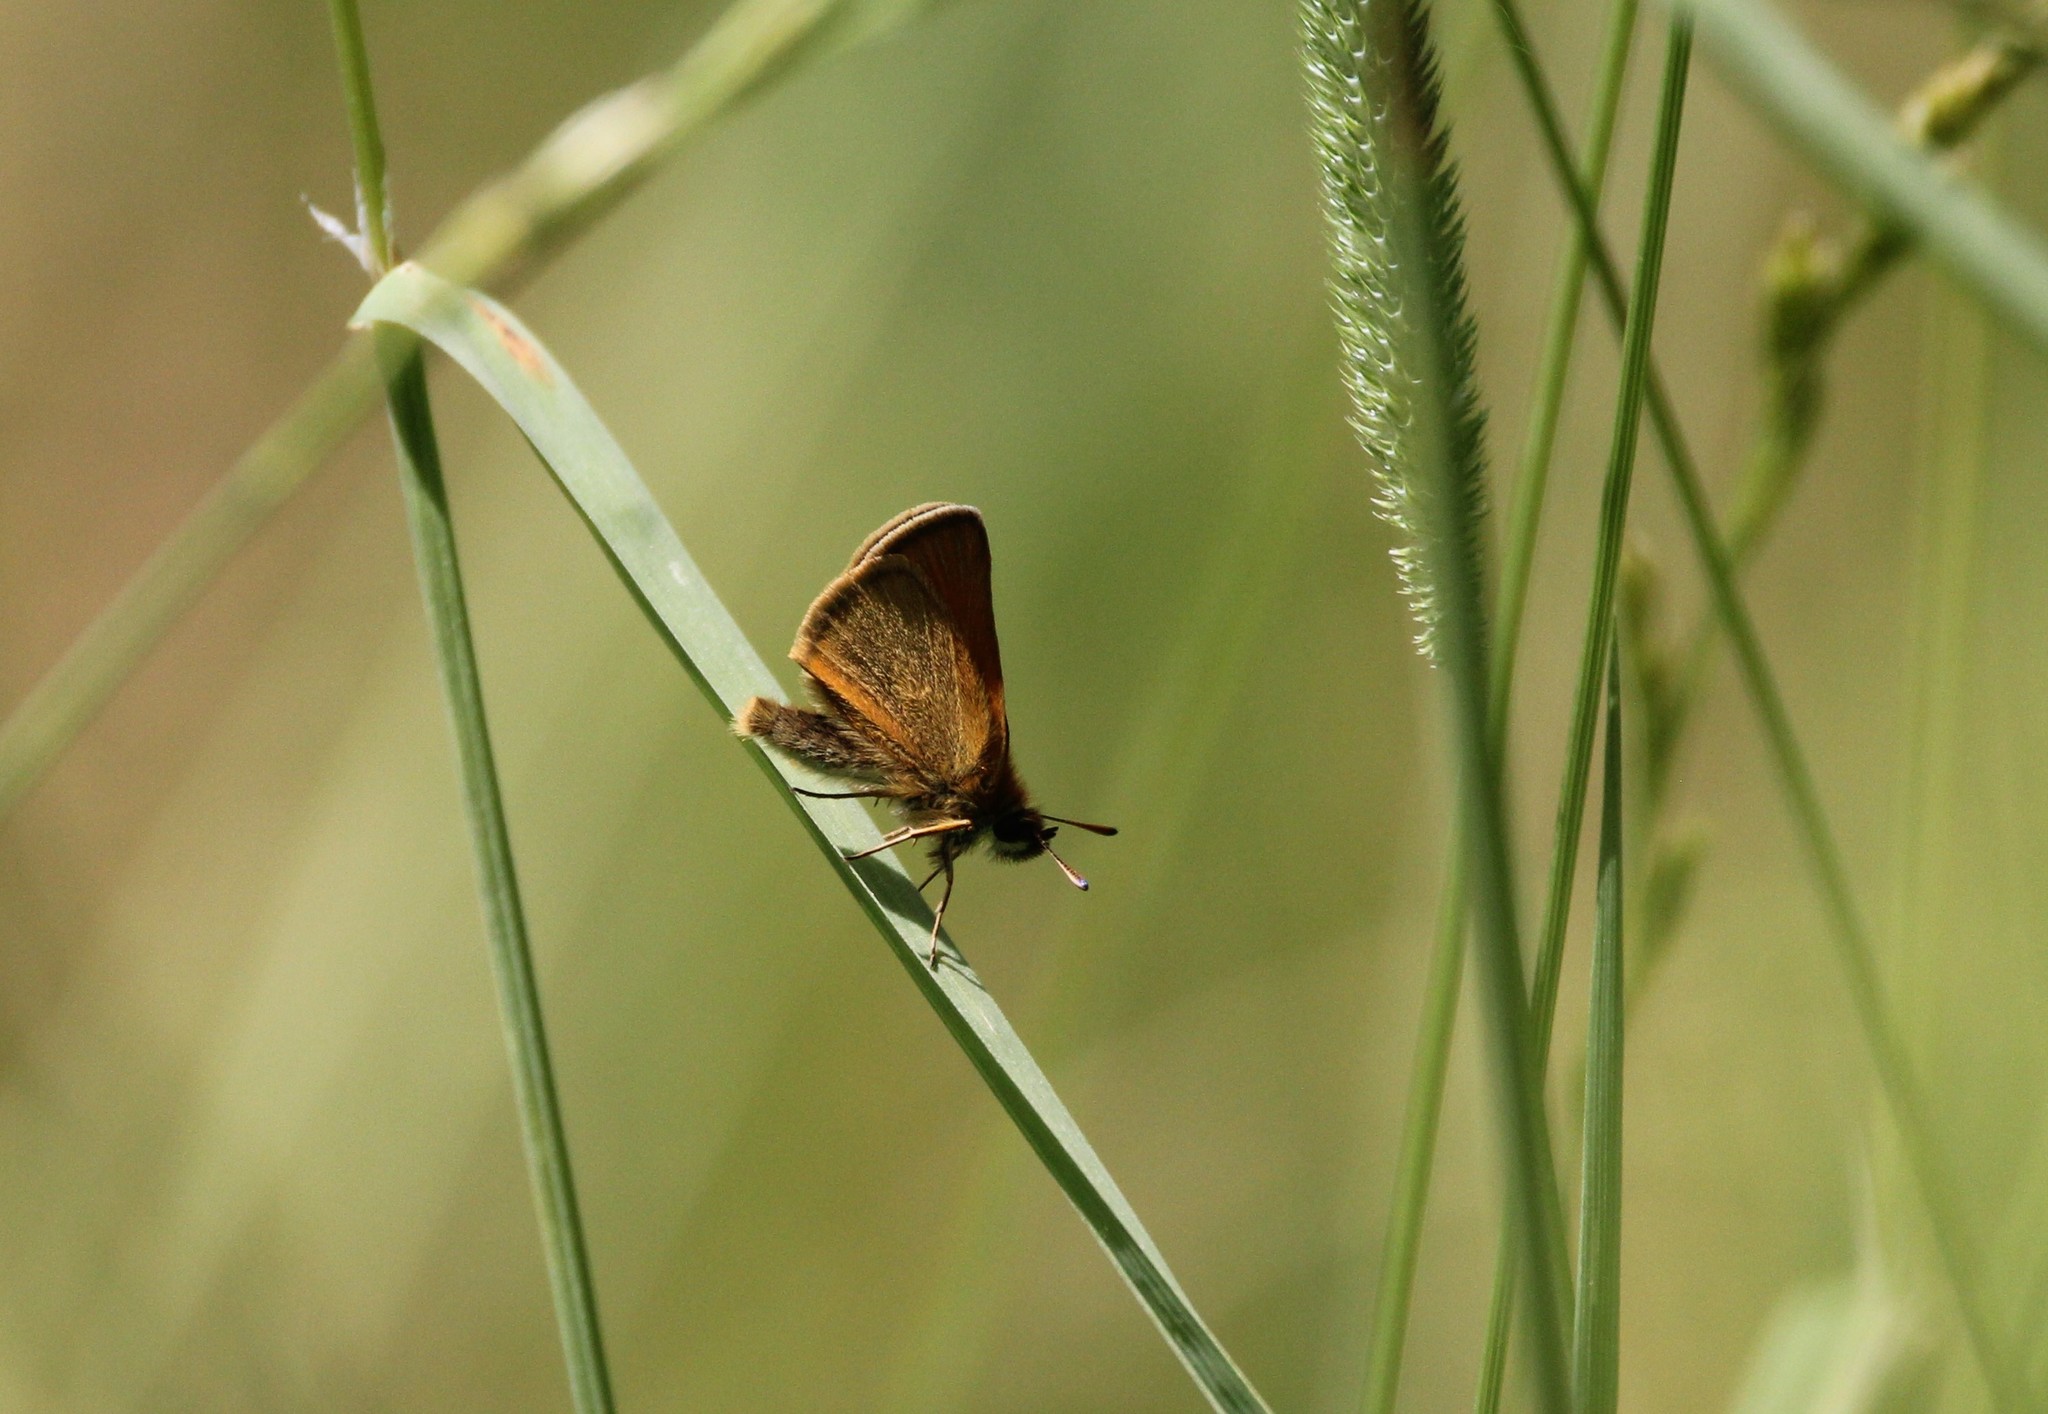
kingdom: Animalia
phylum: Arthropoda
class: Insecta
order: Lepidoptera
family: Hesperiidae
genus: Thymelicus
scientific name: Thymelicus lineola
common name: Essex skipper
